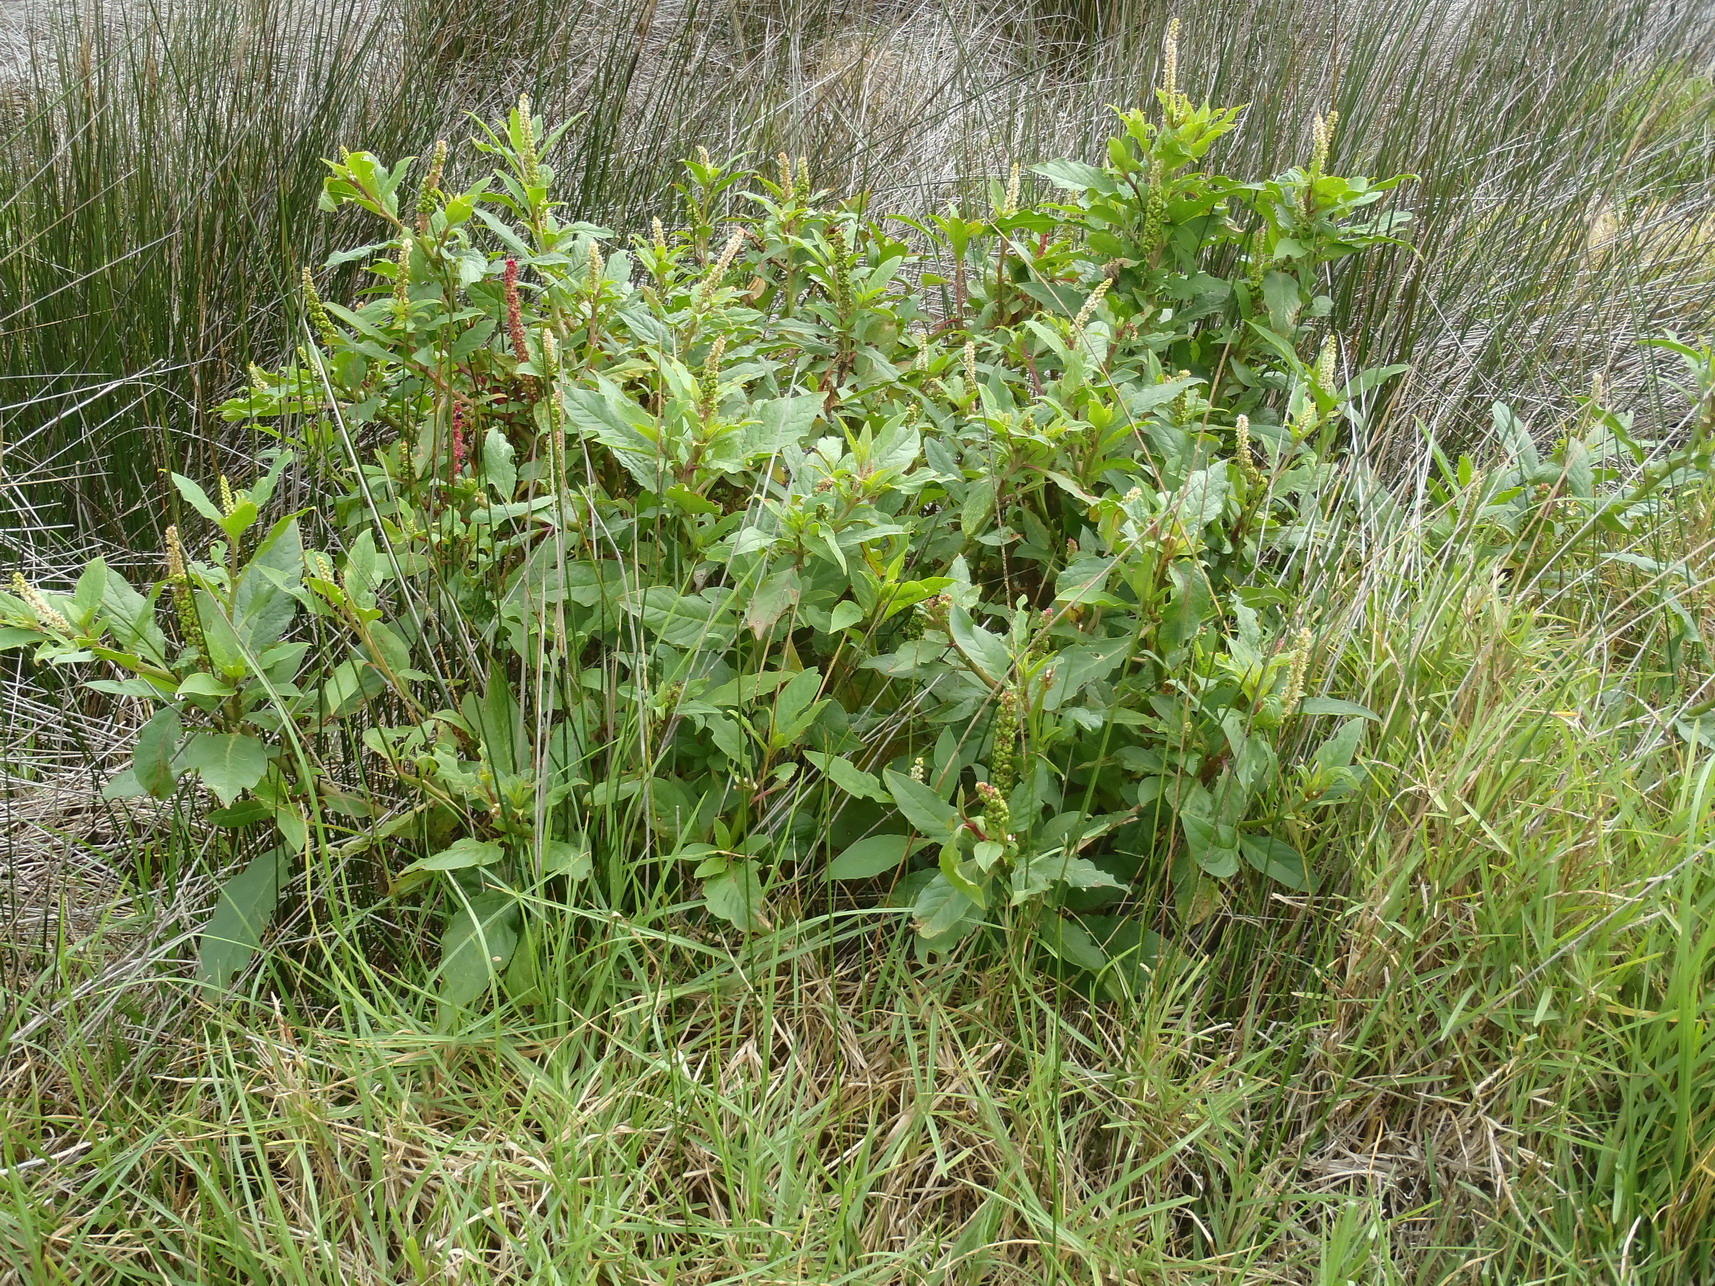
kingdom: Plantae
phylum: Tracheophyta
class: Magnoliopsida
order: Caryophyllales
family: Phytolaccaceae
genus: Phytolacca
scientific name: Phytolacca icosandra
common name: Button pokeweed
